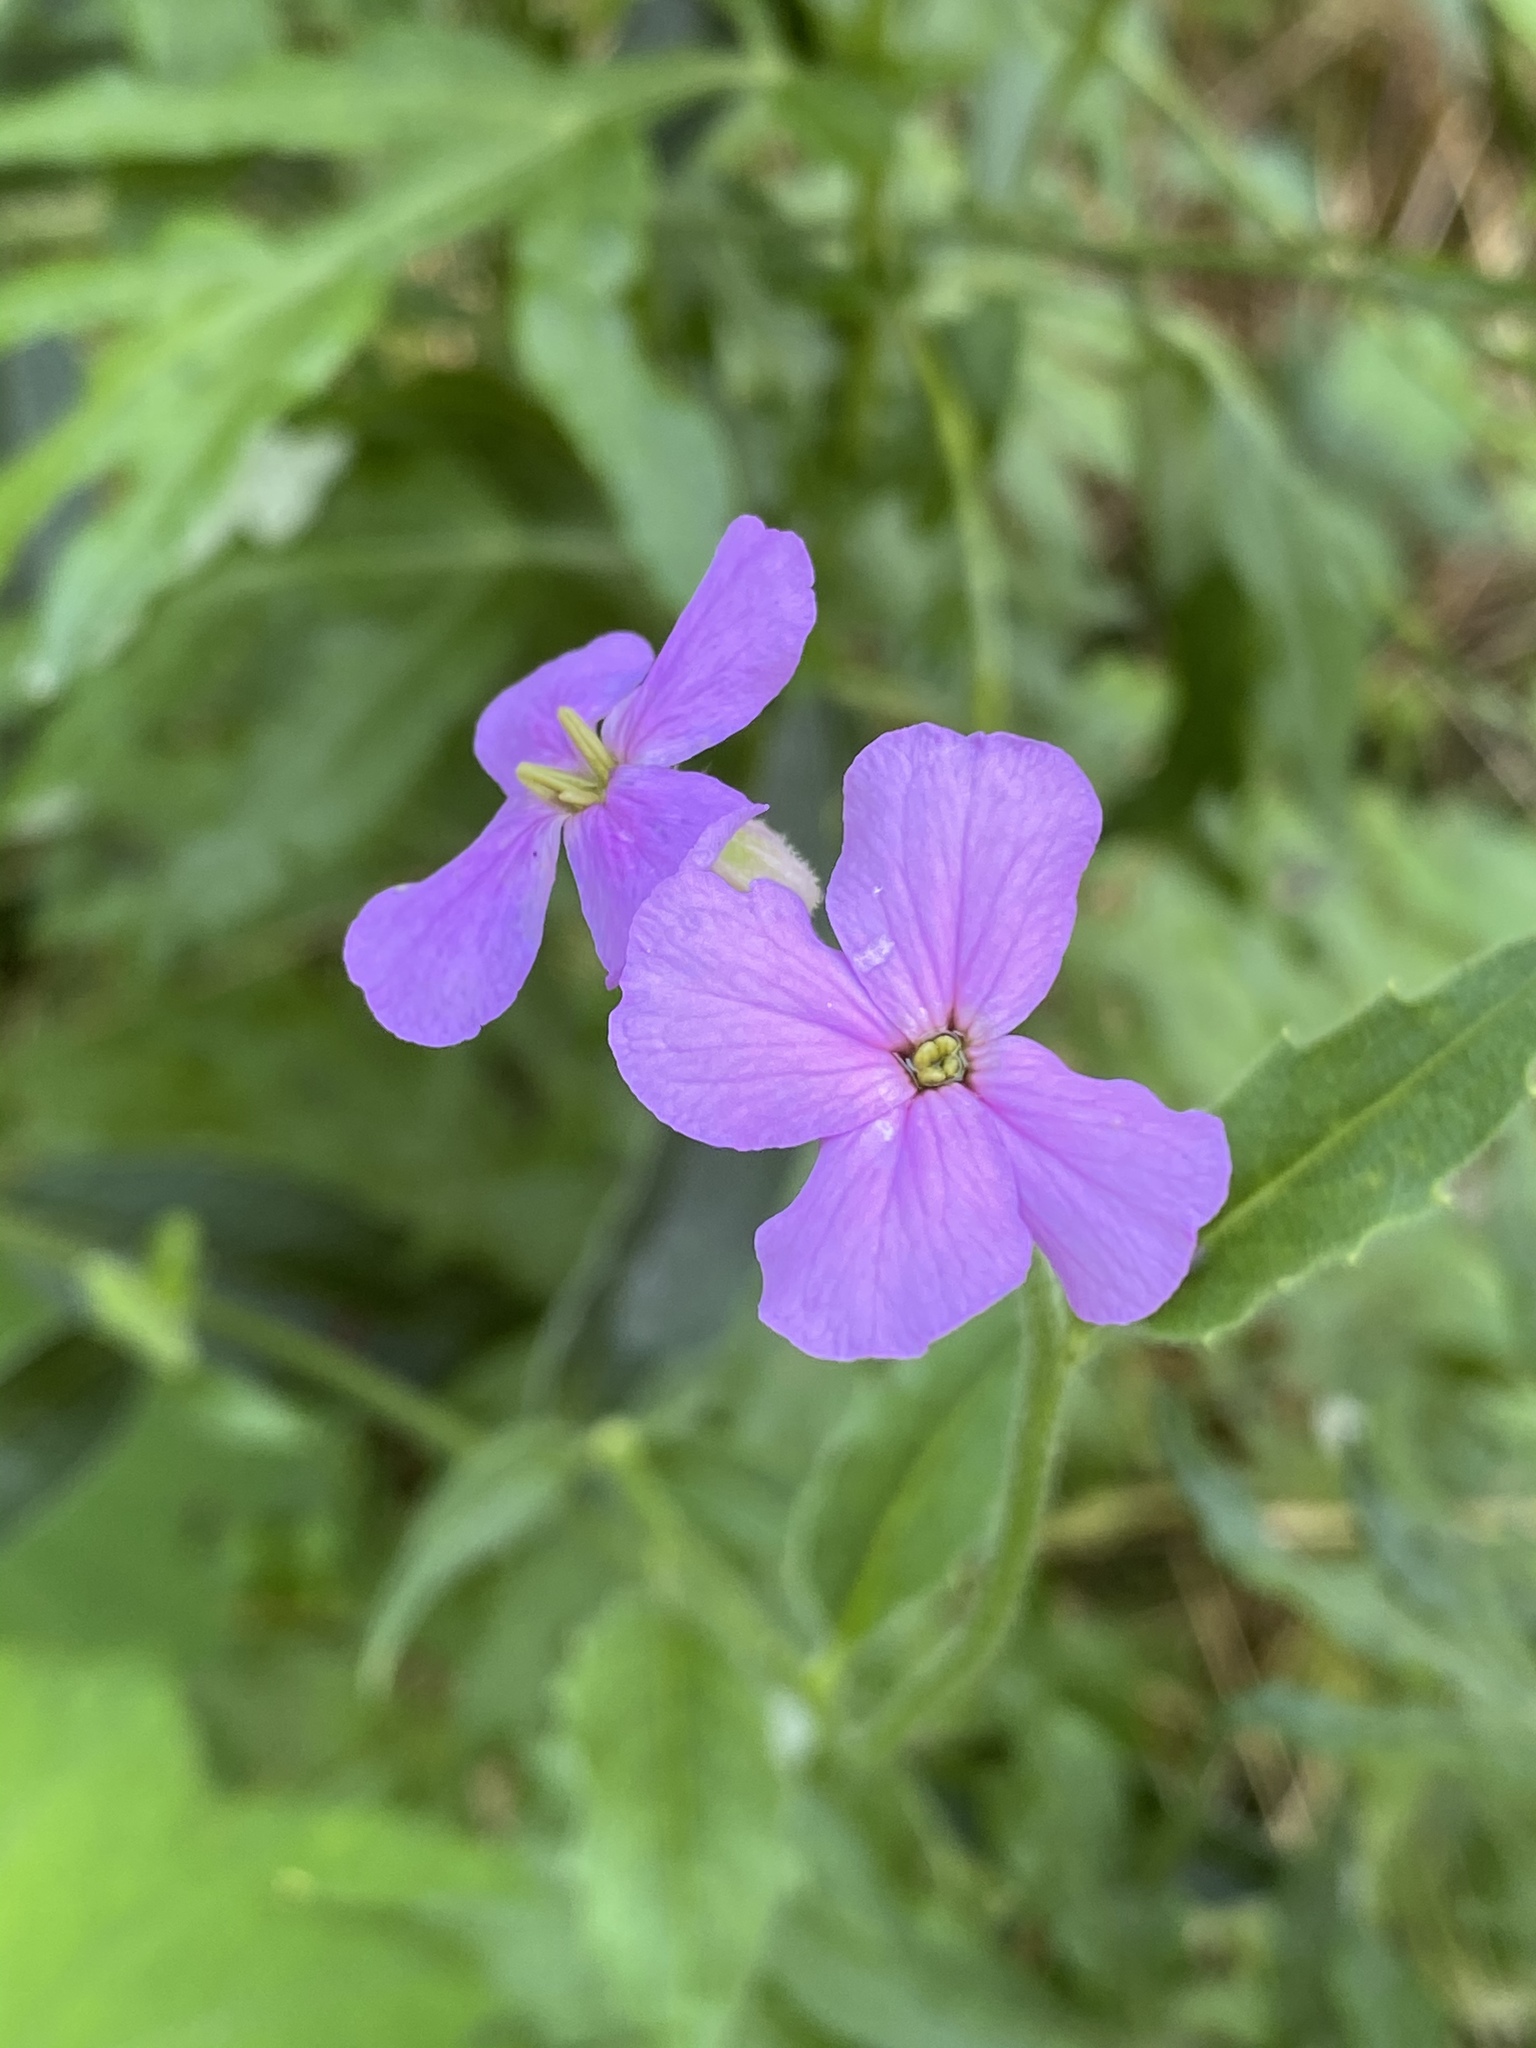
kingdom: Plantae
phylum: Tracheophyta
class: Magnoliopsida
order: Brassicales
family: Brassicaceae
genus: Hesperis
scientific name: Hesperis matronalis
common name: Dame's-violet
